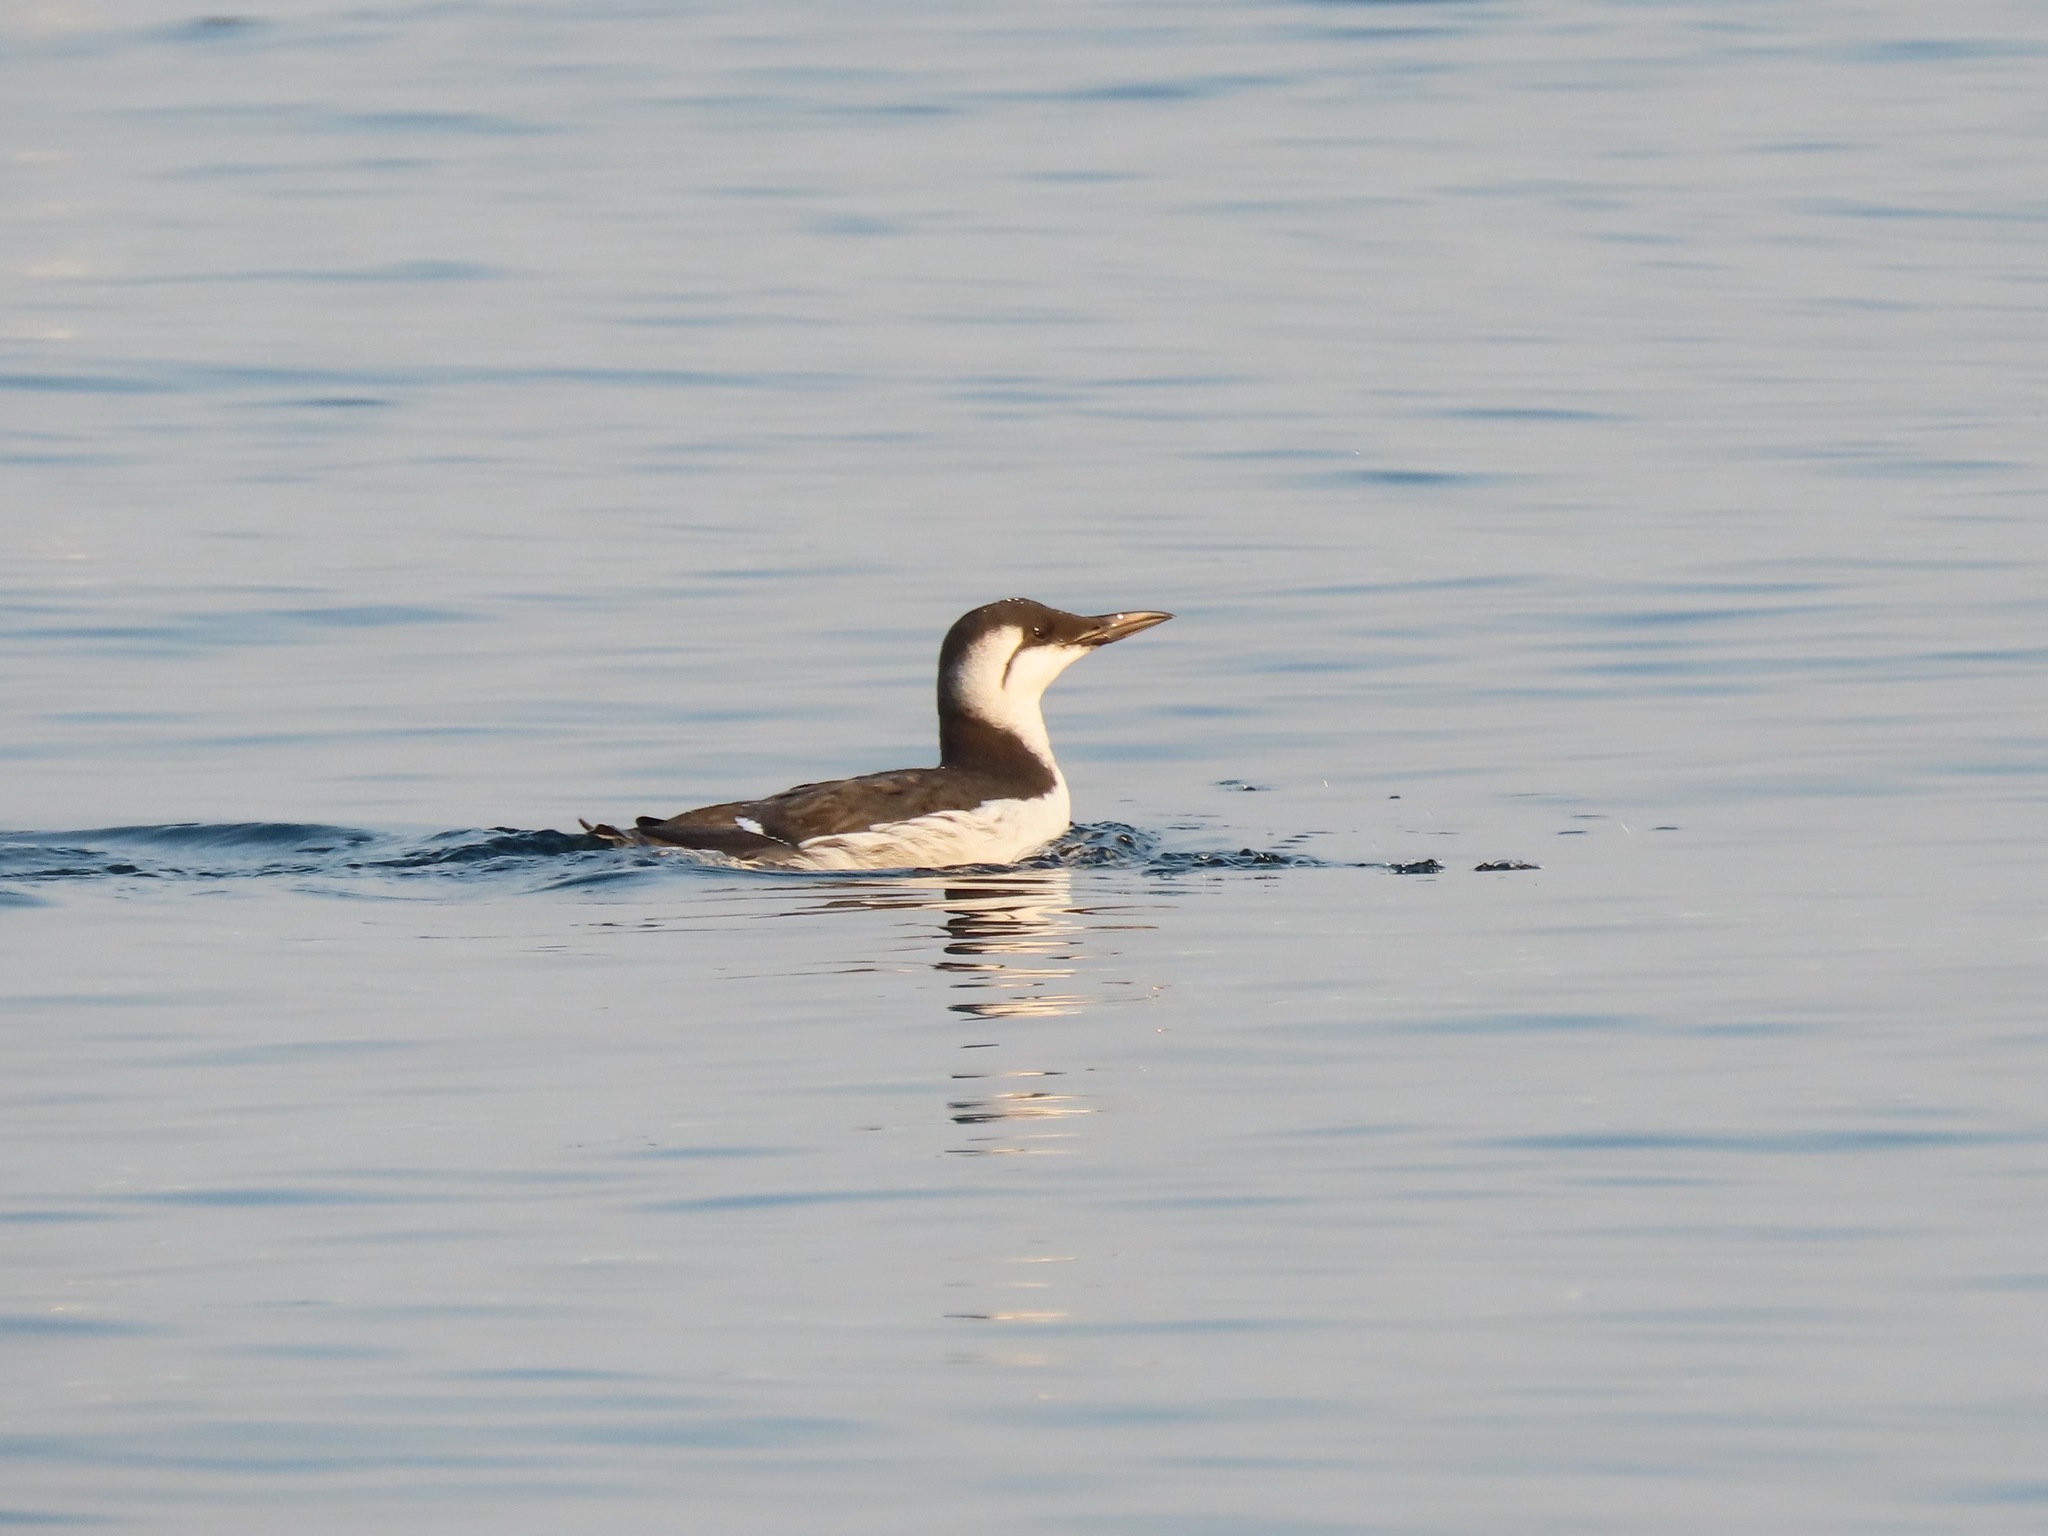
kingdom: Animalia
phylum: Chordata
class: Aves
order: Charadriiformes
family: Alcidae
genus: Uria
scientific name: Uria aalge
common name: Common murre
